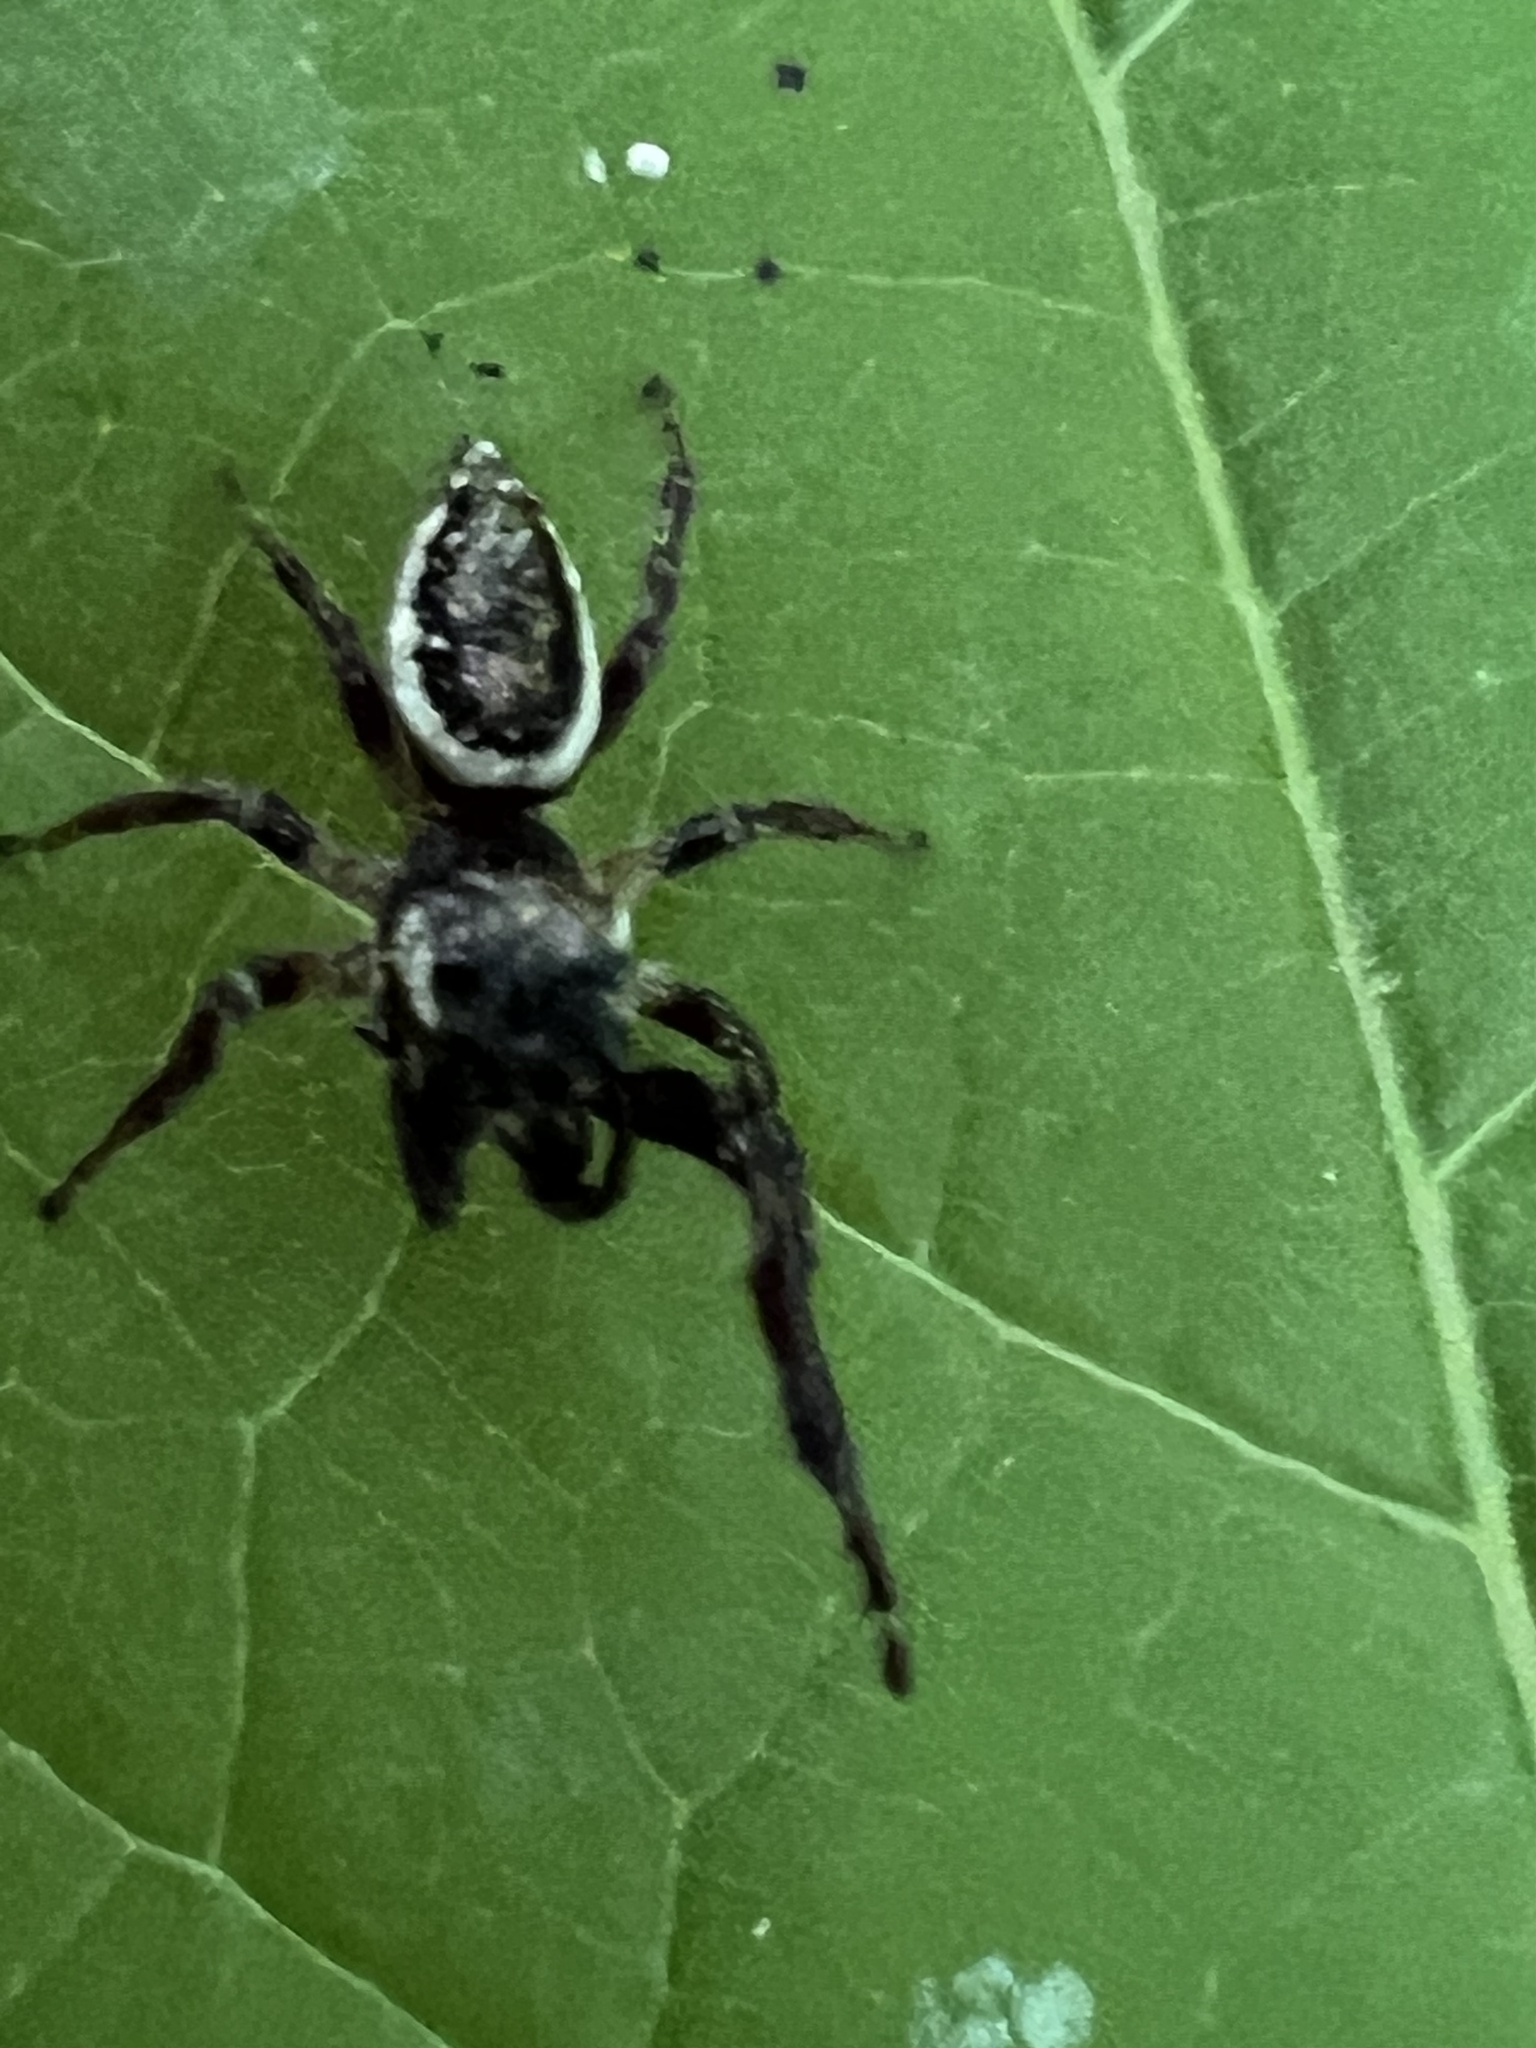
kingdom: Animalia
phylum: Arthropoda
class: Arachnida
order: Araneae
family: Salticidae
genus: Eris
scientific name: Eris militaris
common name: Bronze jumper
